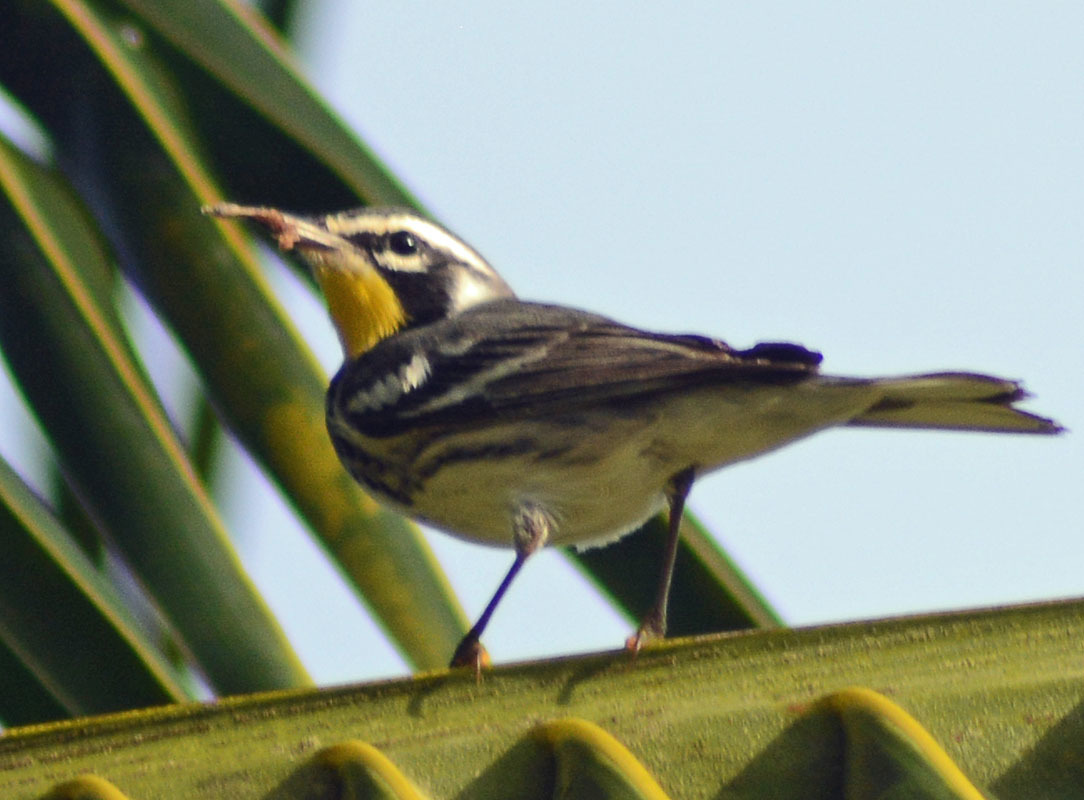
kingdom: Animalia
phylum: Chordata
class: Aves
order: Passeriformes
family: Parulidae
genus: Setophaga
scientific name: Setophaga dominica
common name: Yellow-throated warbler
